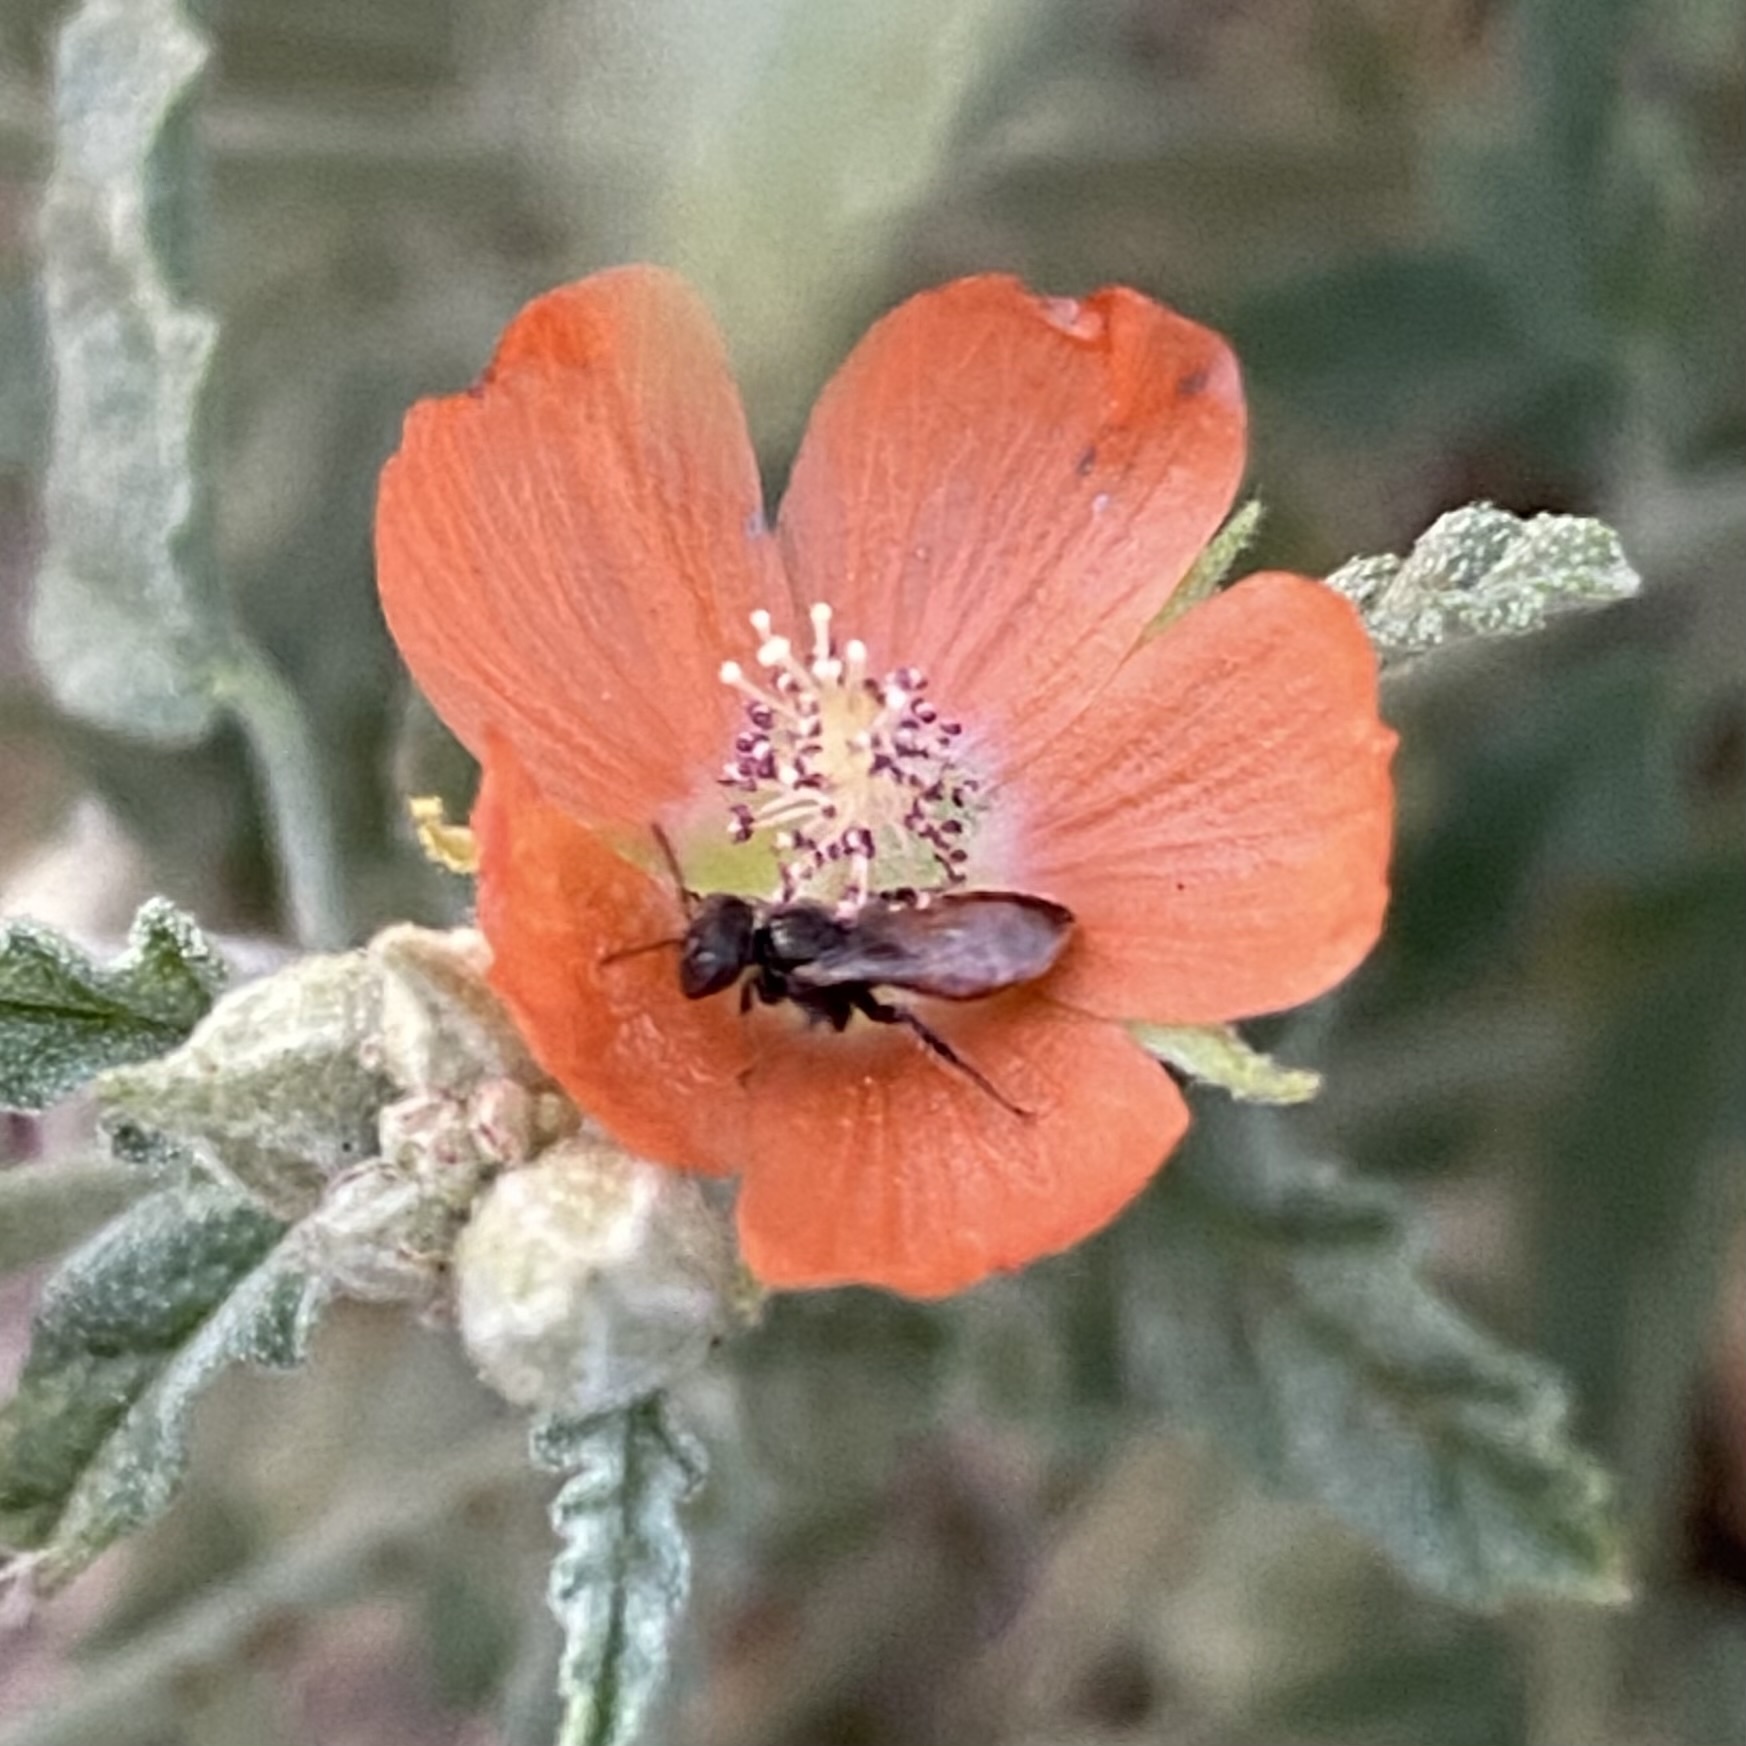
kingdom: Animalia
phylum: Arthropoda
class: Insecta
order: Hymenoptera
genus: Macroteropsis
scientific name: Macroteropsis
